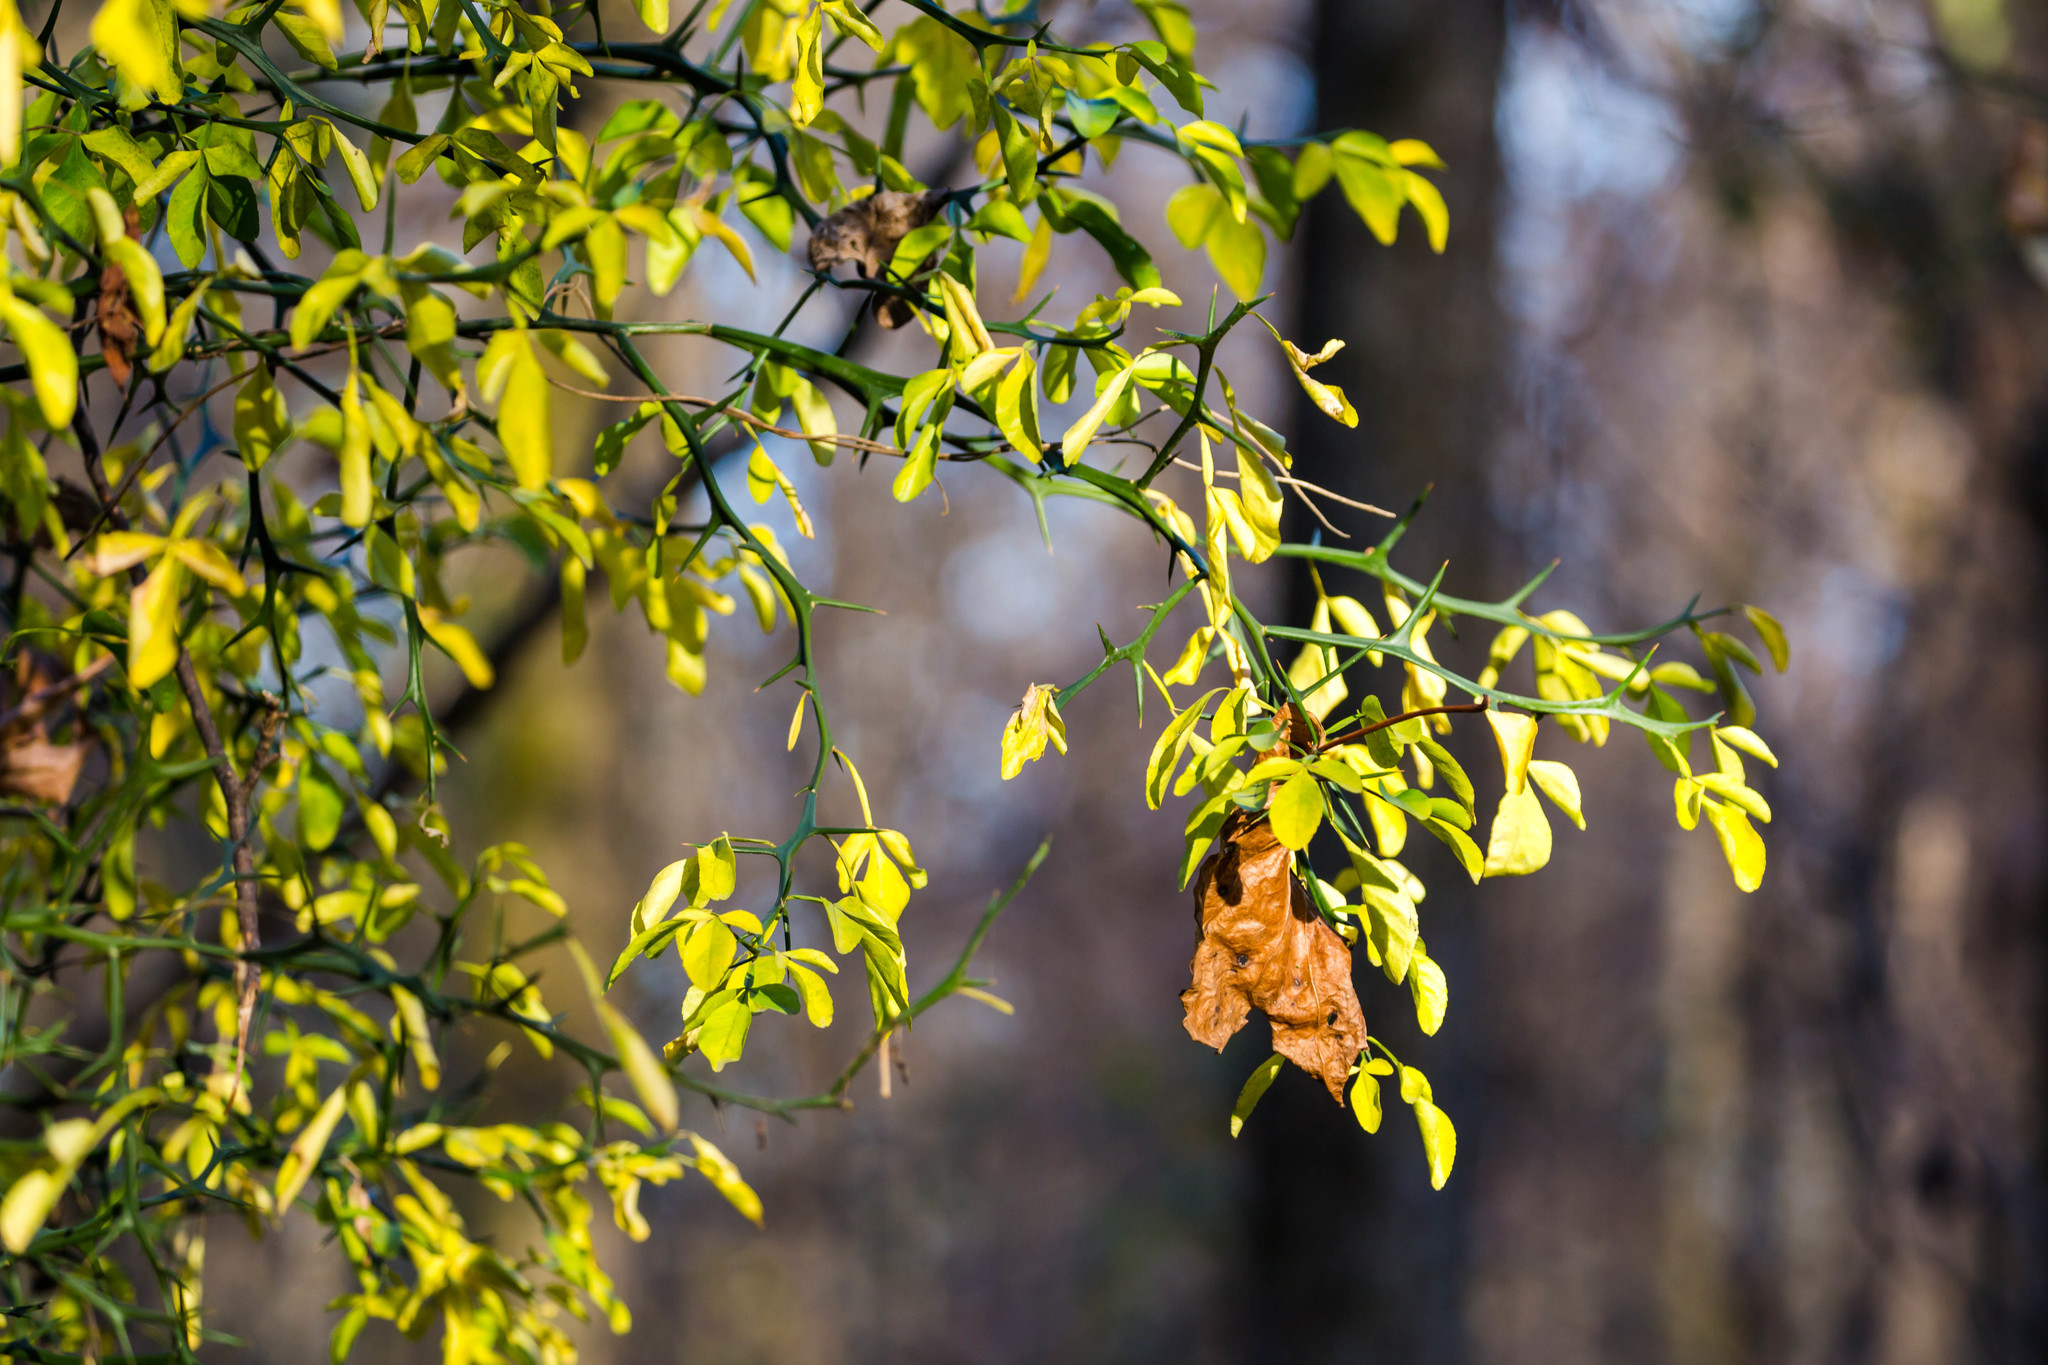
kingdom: Plantae
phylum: Tracheophyta
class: Magnoliopsida
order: Sapindales
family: Rutaceae
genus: Citrus
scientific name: Citrus trifoliata
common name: Japanese bitter-orange
